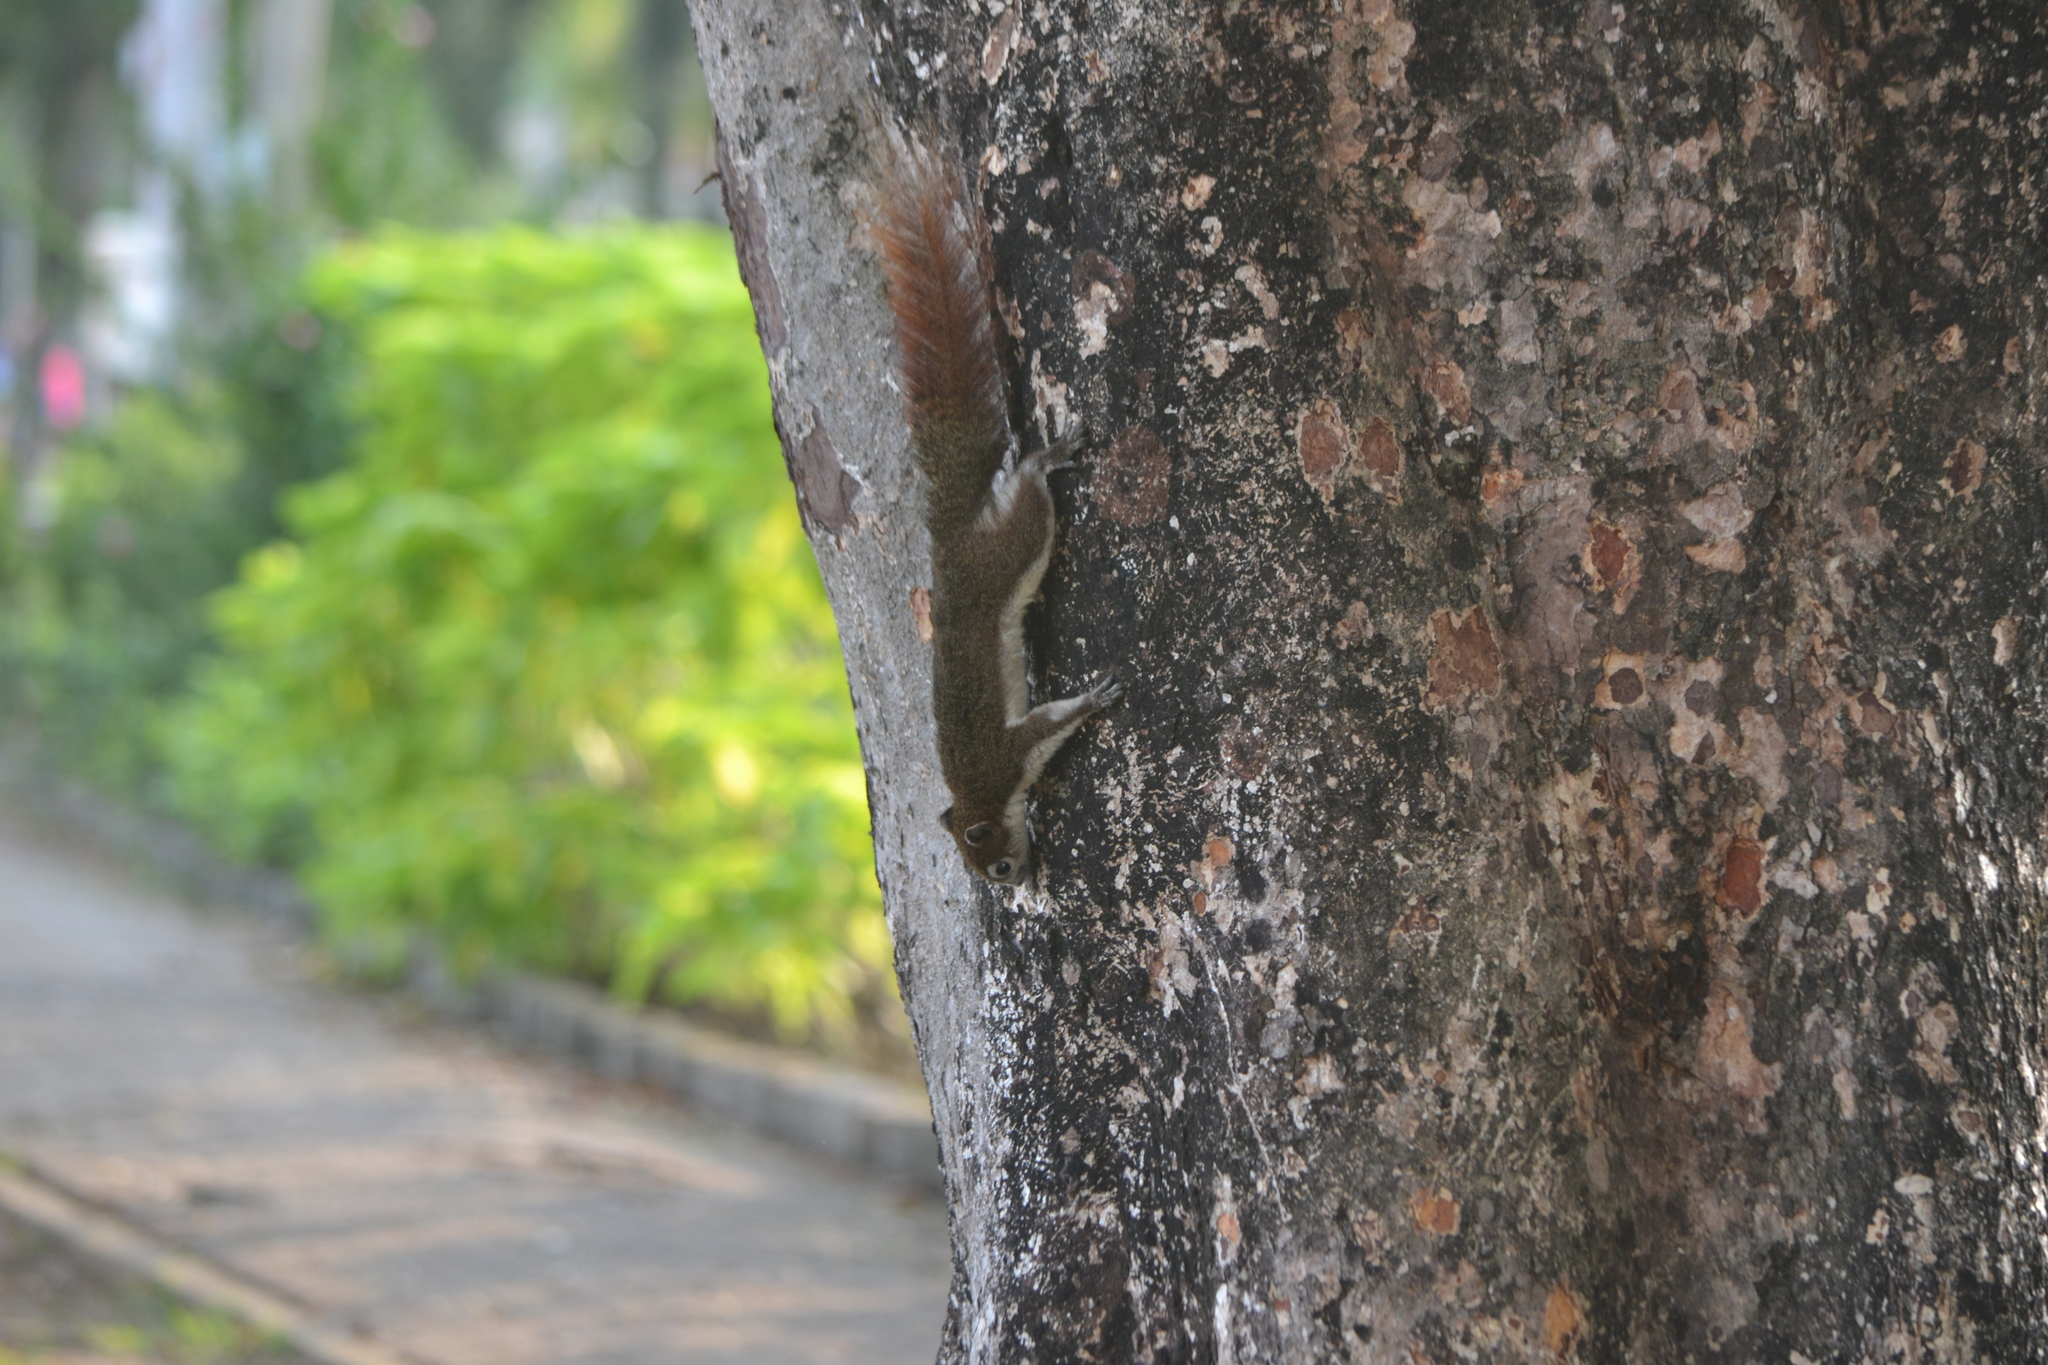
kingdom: Animalia
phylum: Chordata
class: Mammalia
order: Rodentia
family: Sciuridae
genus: Callosciurus
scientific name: Callosciurus finlaysonii
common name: Finlayson's squirrel
